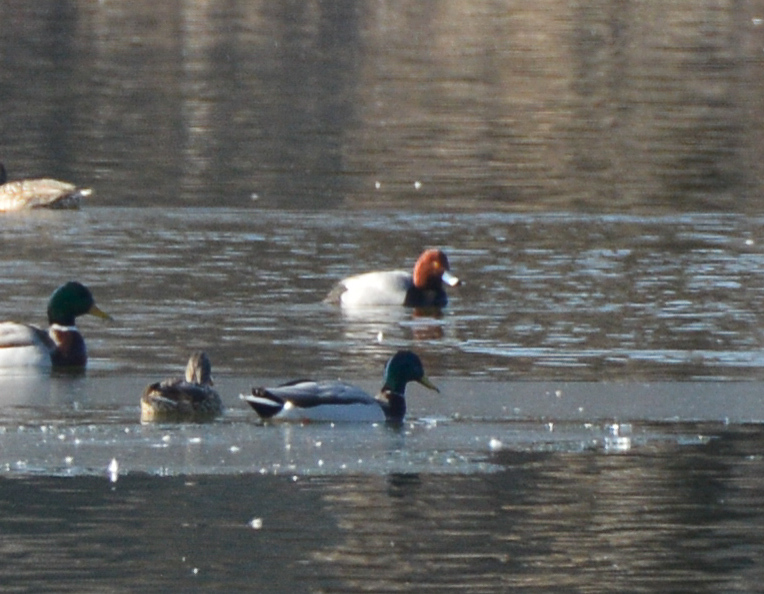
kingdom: Animalia
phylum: Chordata
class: Aves
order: Anseriformes
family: Anatidae
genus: Aythya
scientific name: Aythya americana
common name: Redhead
